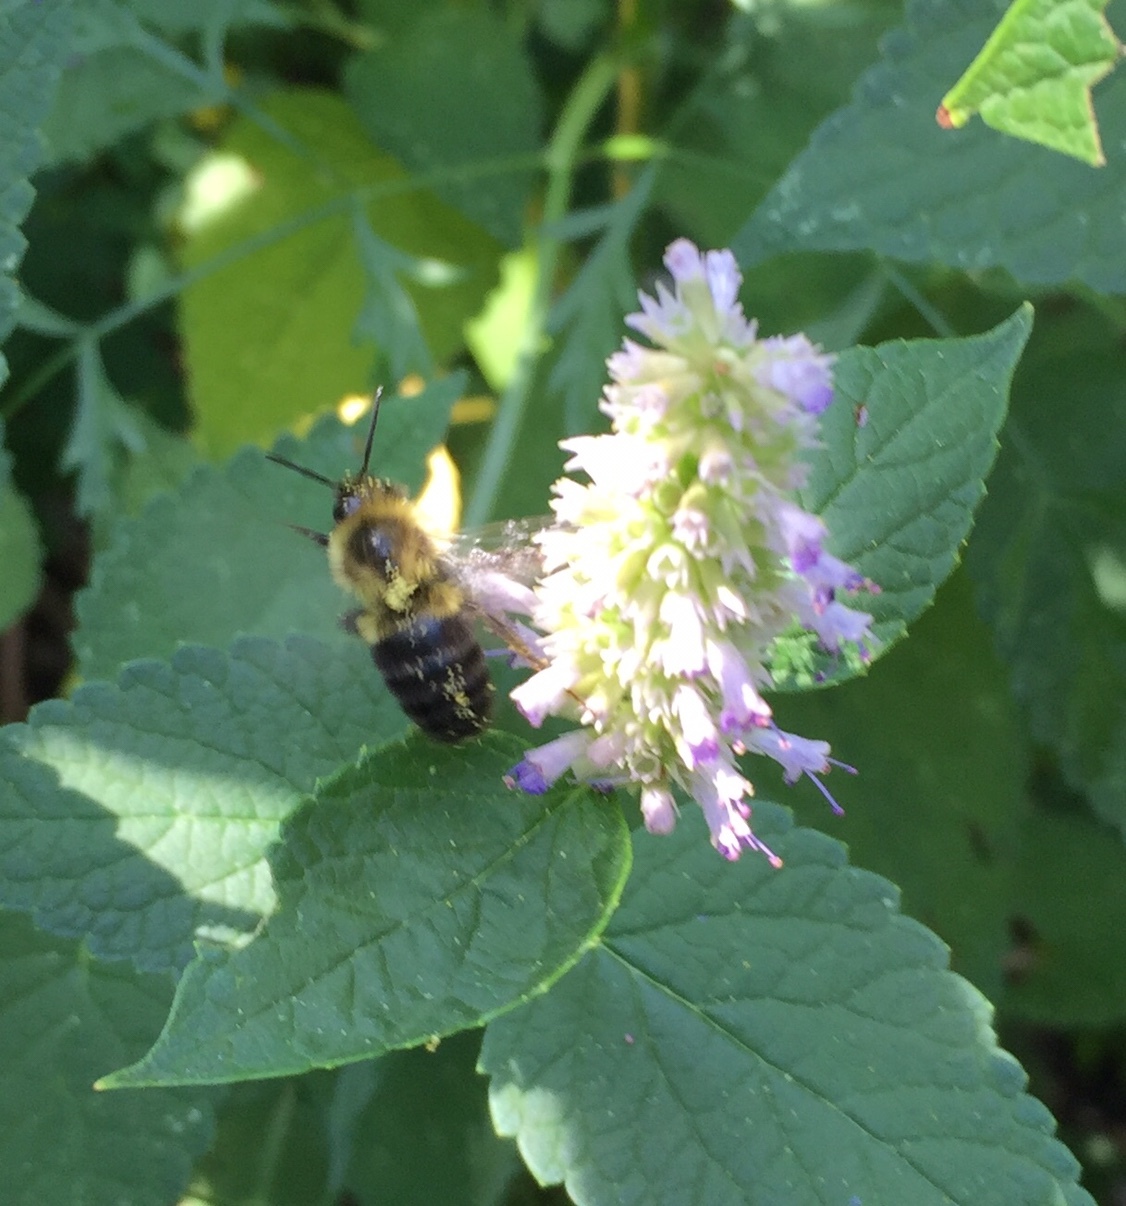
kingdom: Animalia
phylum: Arthropoda
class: Insecta
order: Hymenoptera
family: Apidae
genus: Bombus
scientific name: Bombus impatiens
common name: Common eastern bumble bee
